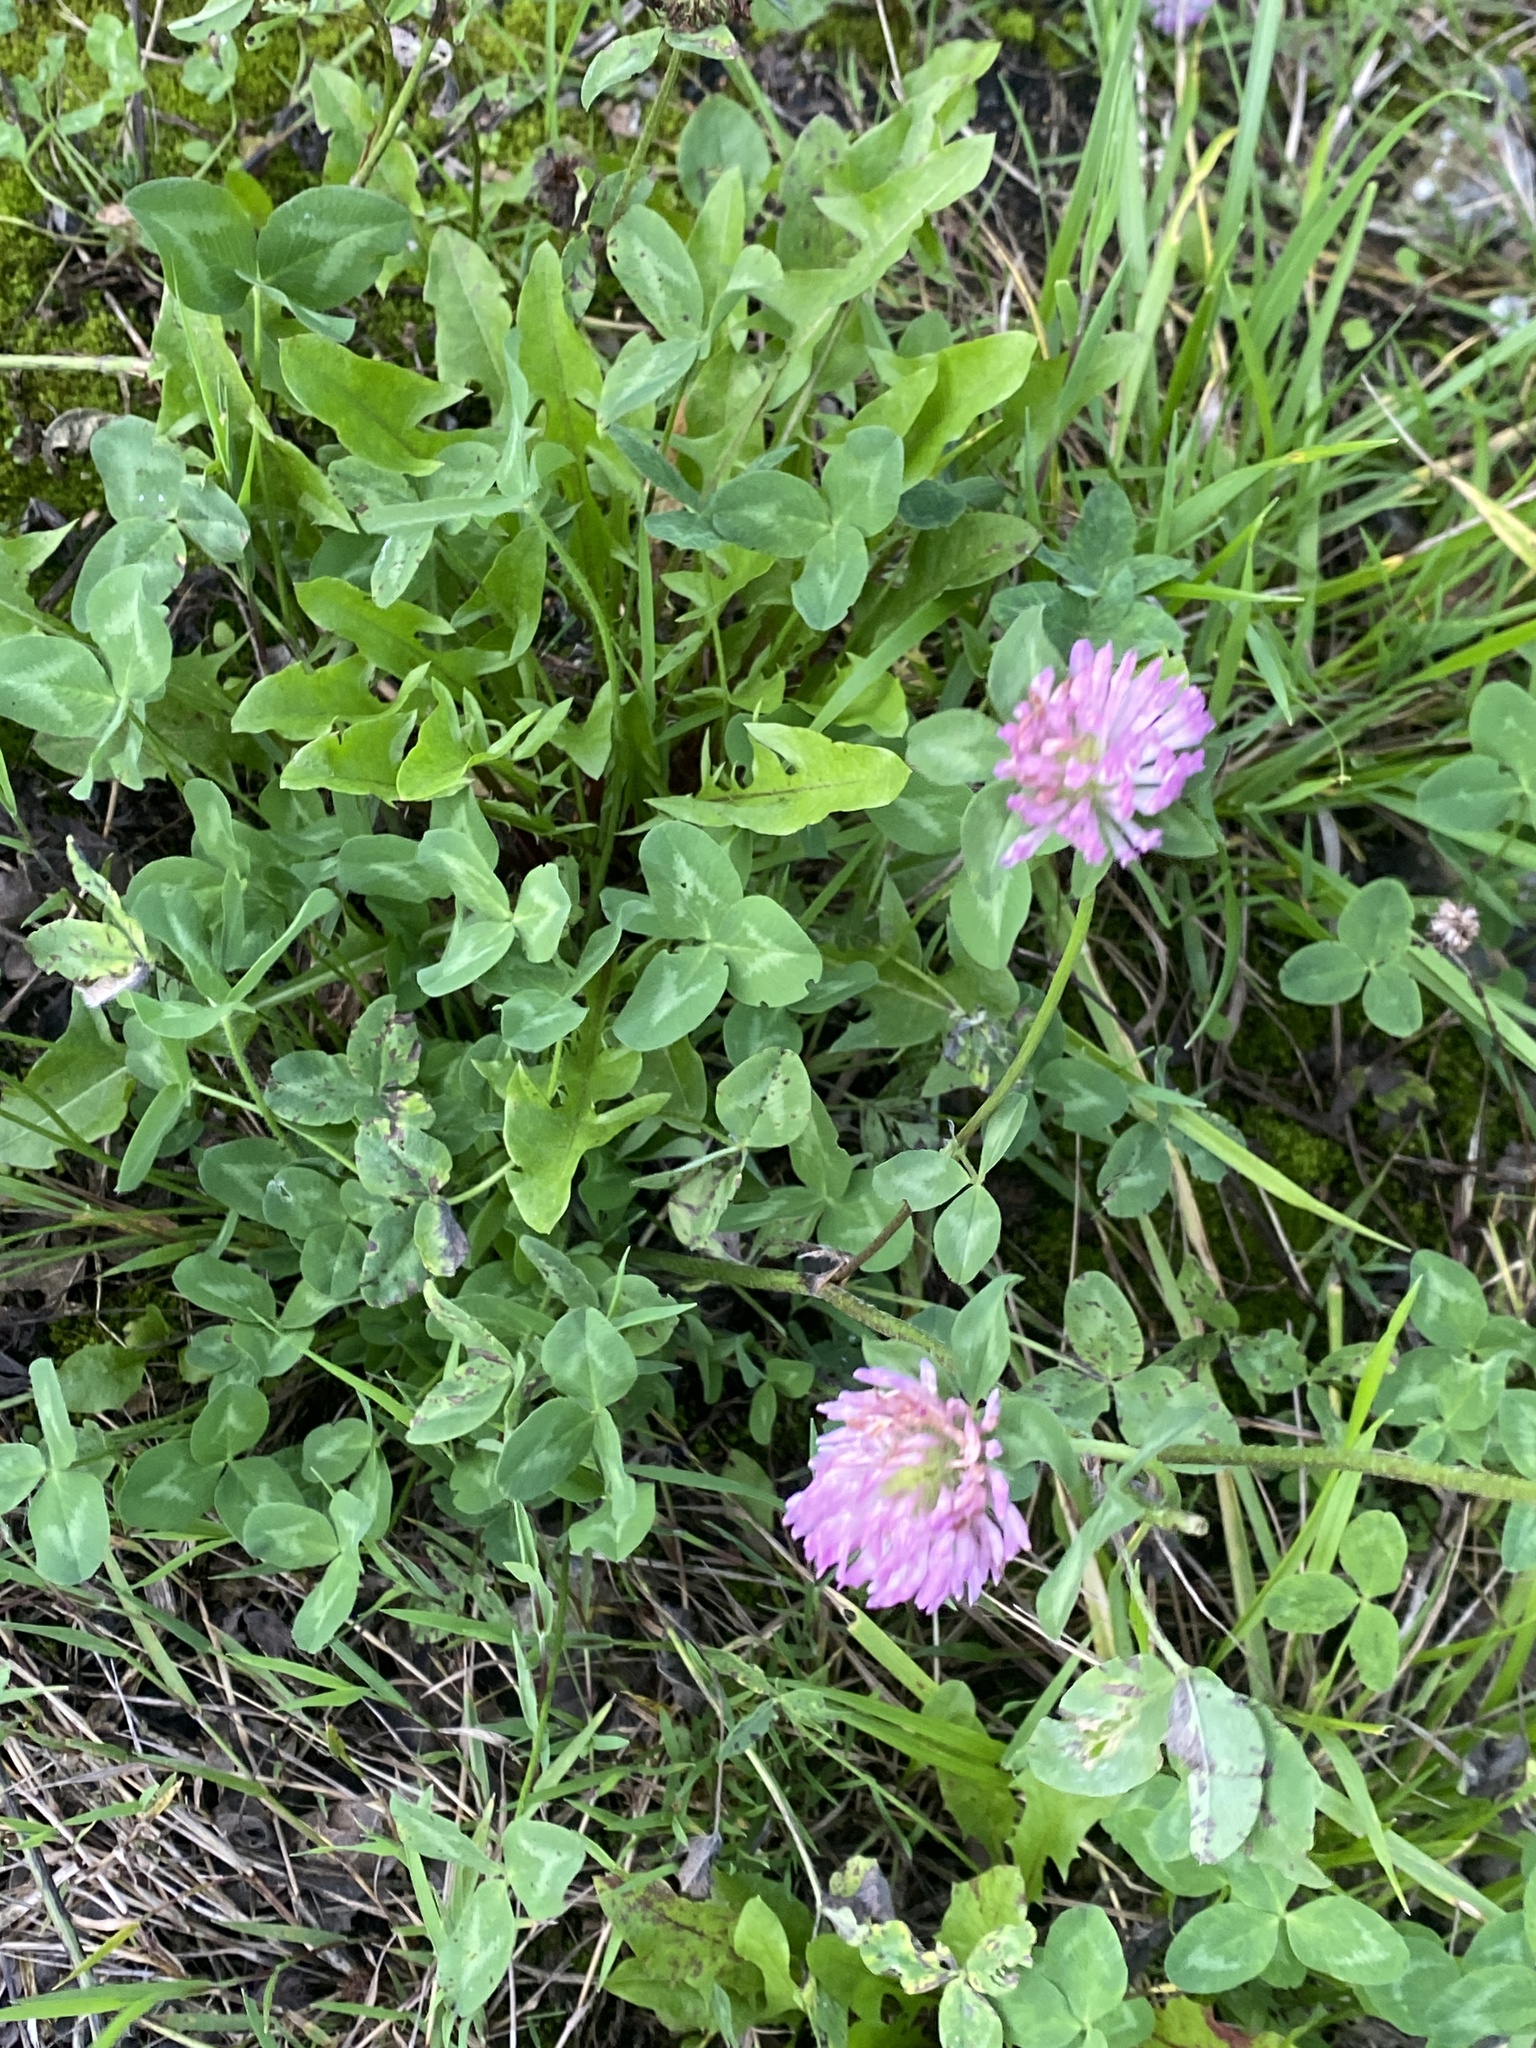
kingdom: Plantae
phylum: Tracheophyta
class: Magnoliopsida
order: Fabales
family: Fabaceae
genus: Trifolium
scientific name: Trifolium pratense
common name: Red clover
